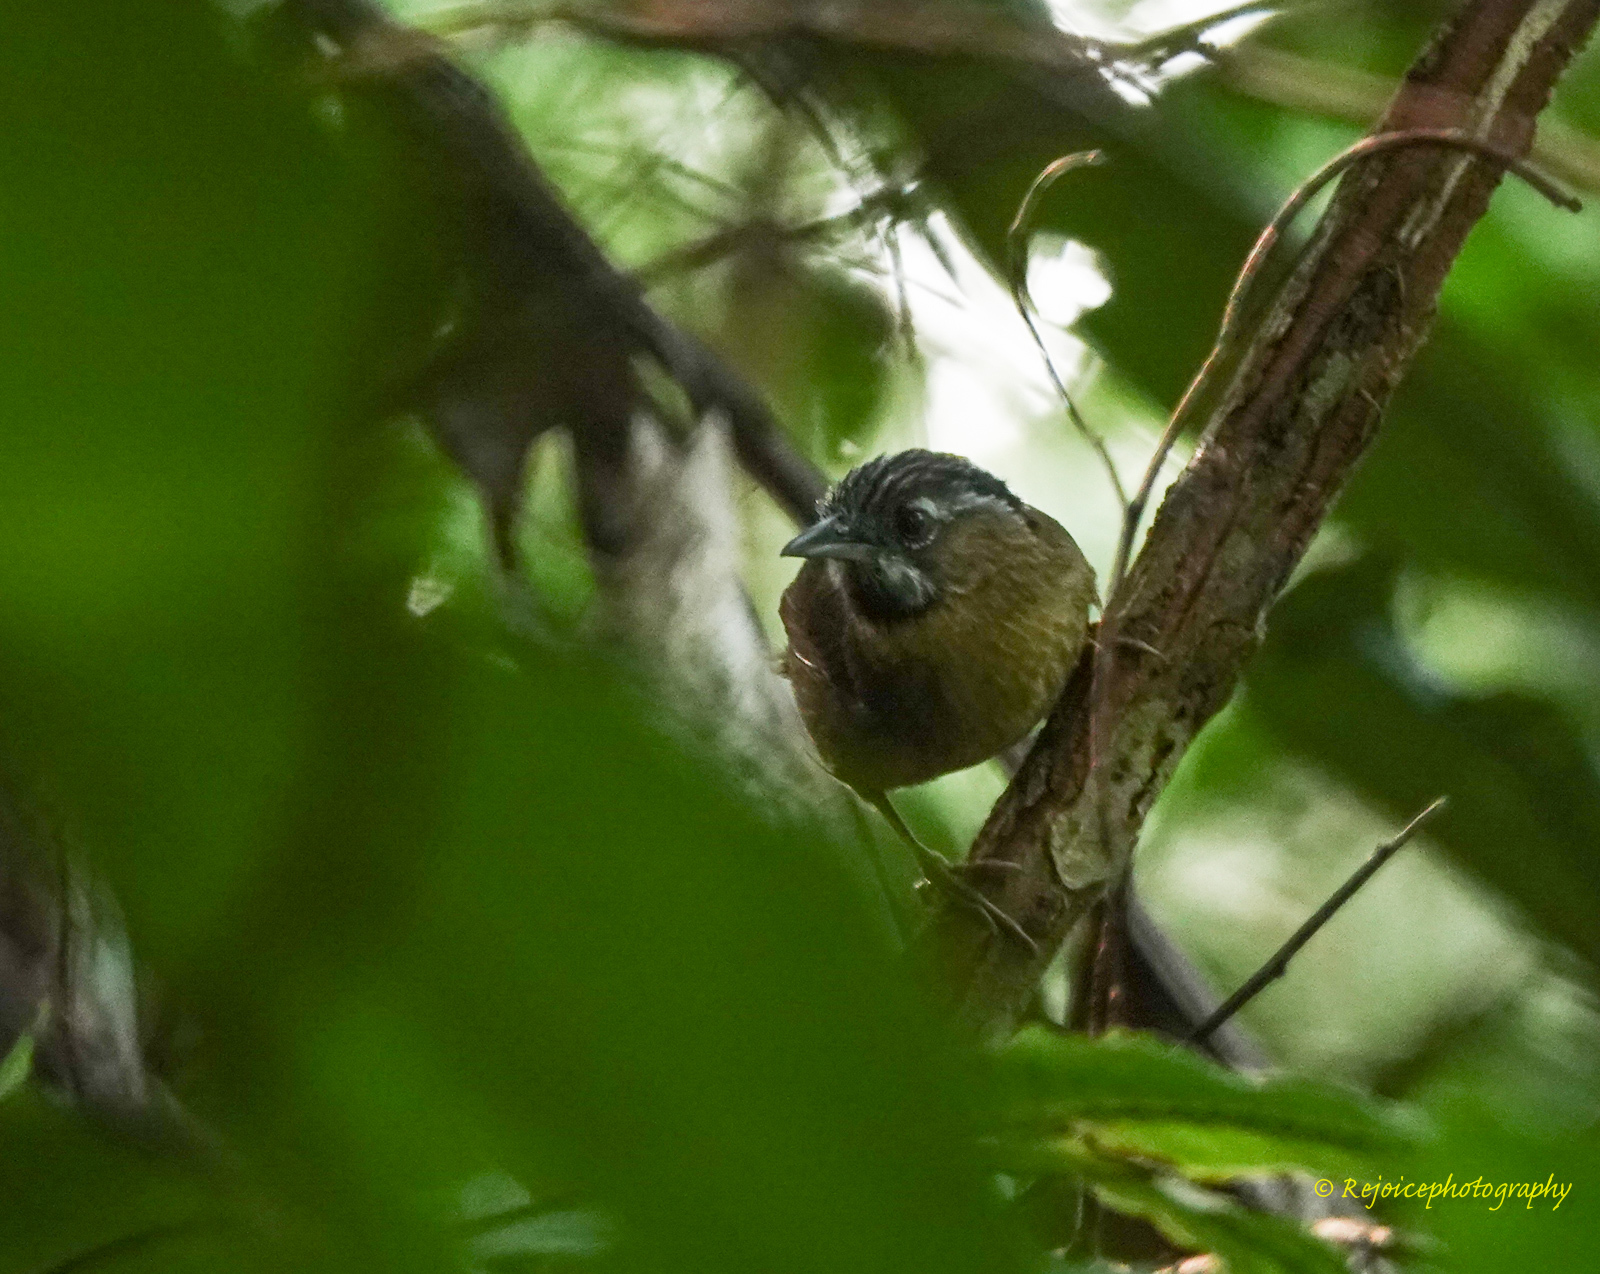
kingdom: Animalia
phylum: Chordata
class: Aves
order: Passeriformes
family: Timaliidae
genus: Stachyris
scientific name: Stachyris nigriceps
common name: Grey-throated babbler
